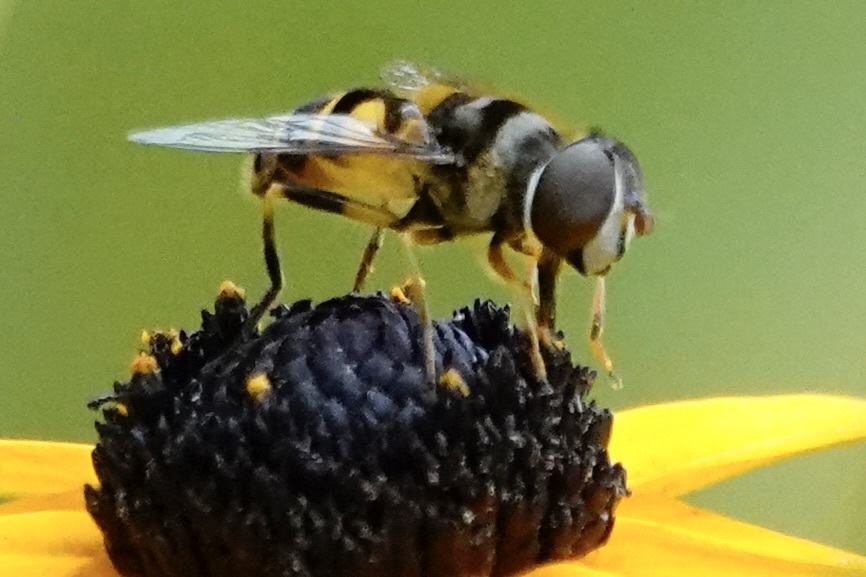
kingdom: Animalia
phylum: Arthropoda
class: Insecta
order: Diptera
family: Syrphidae
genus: Eristalis
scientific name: Eristalis transversa
